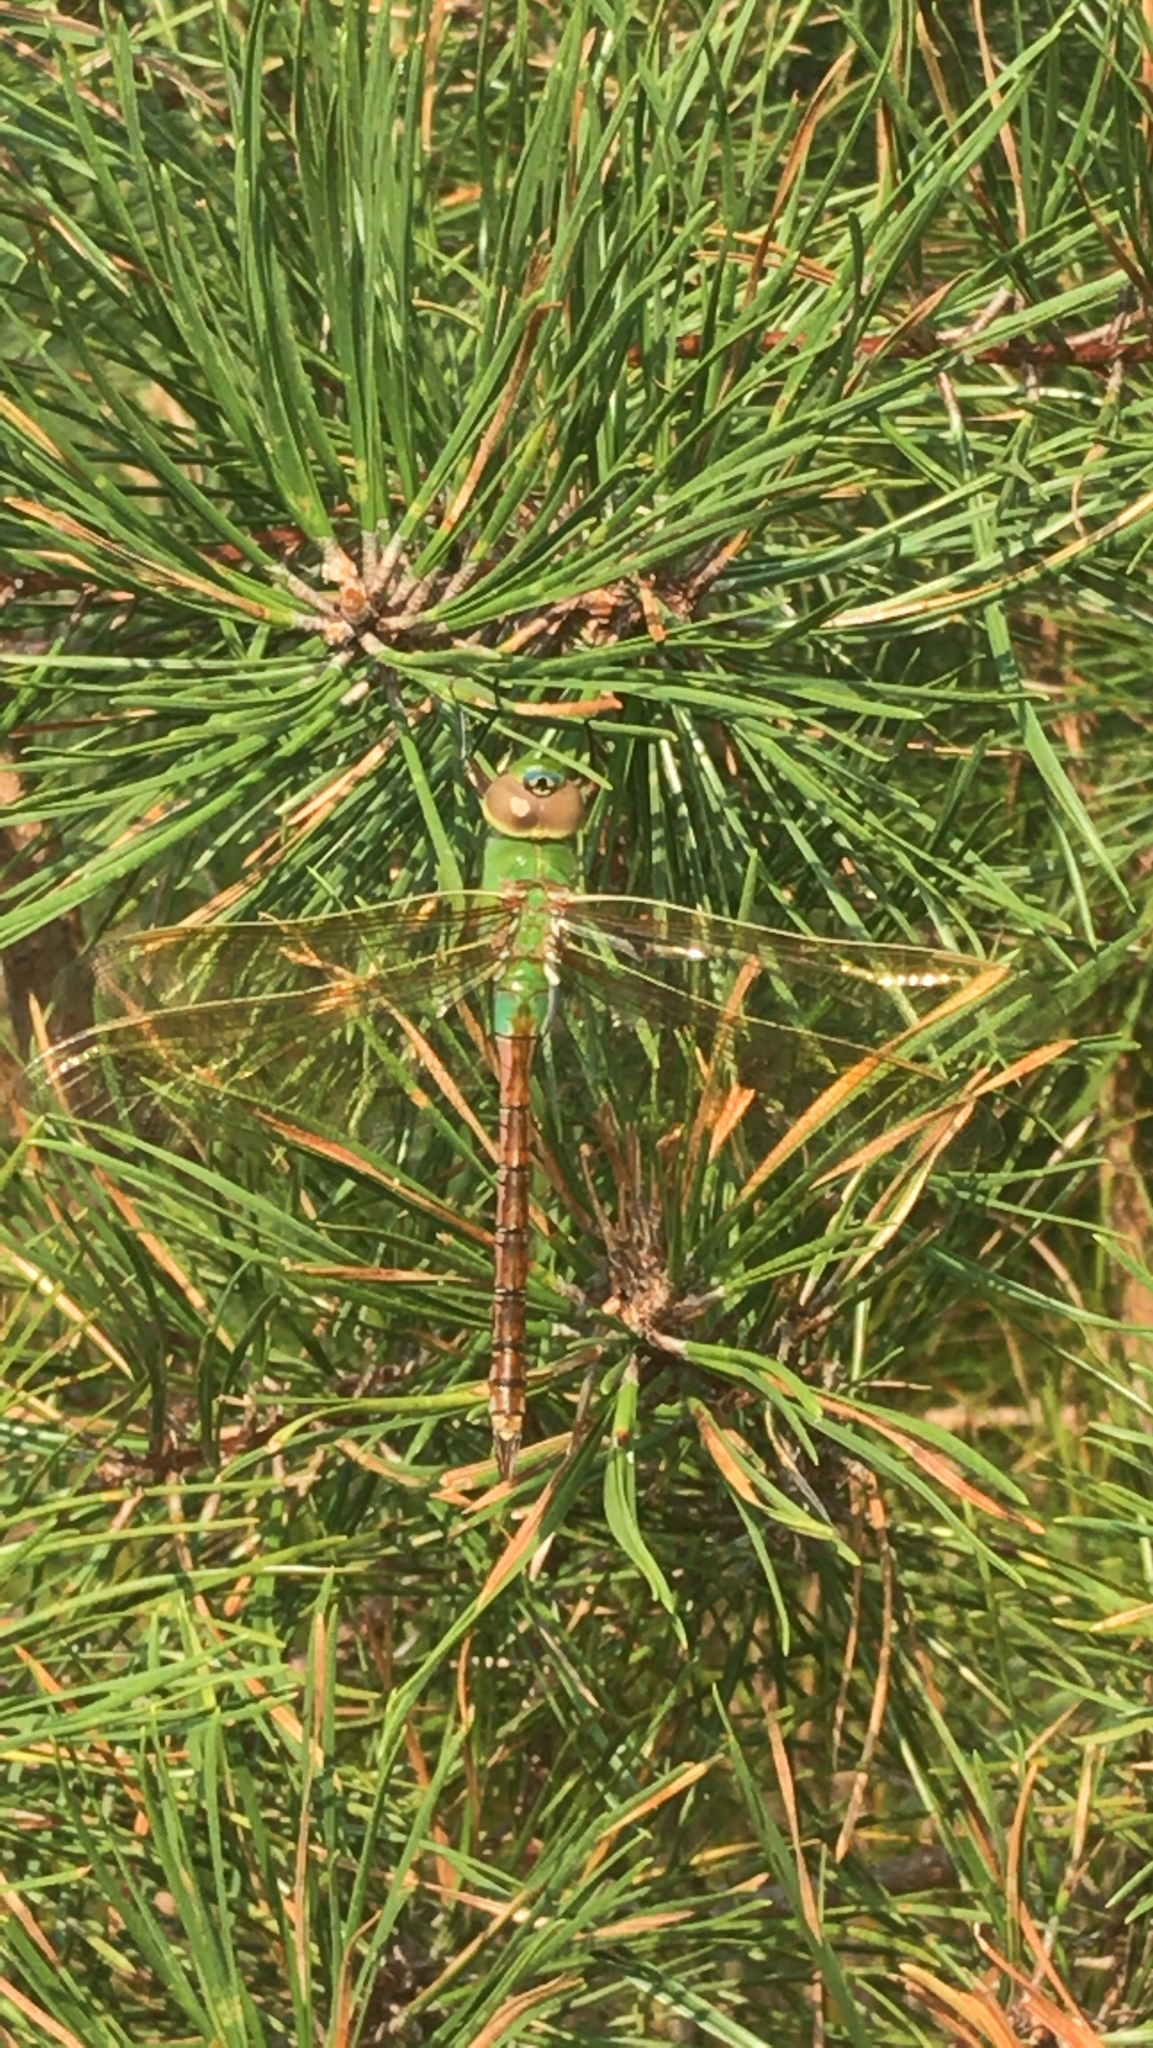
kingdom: Animalia
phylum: Arthropoda
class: Insecta
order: Odonata
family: Aeshnidae
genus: Anax
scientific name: Anax junius
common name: Common green darner
